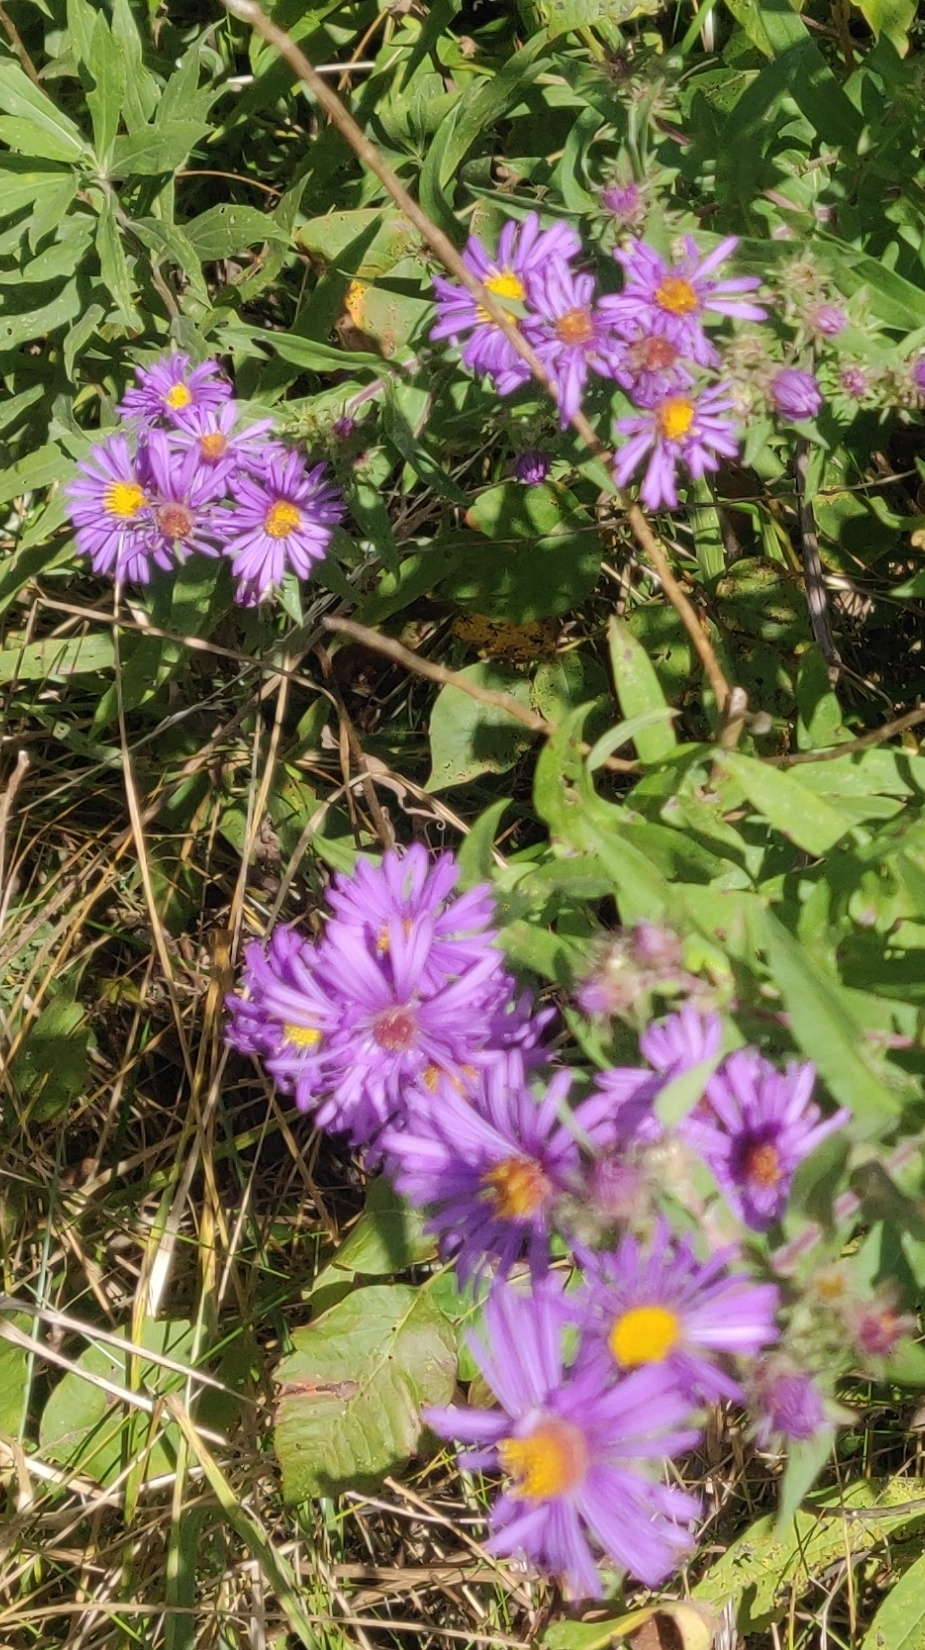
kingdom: Plantae
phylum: Tracheophyta
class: Magnoliopsida
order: Asterales
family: Asteraceae
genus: Symphyotrichum
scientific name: Symphyotrichum novae-angliae
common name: Michaelmas daisy
